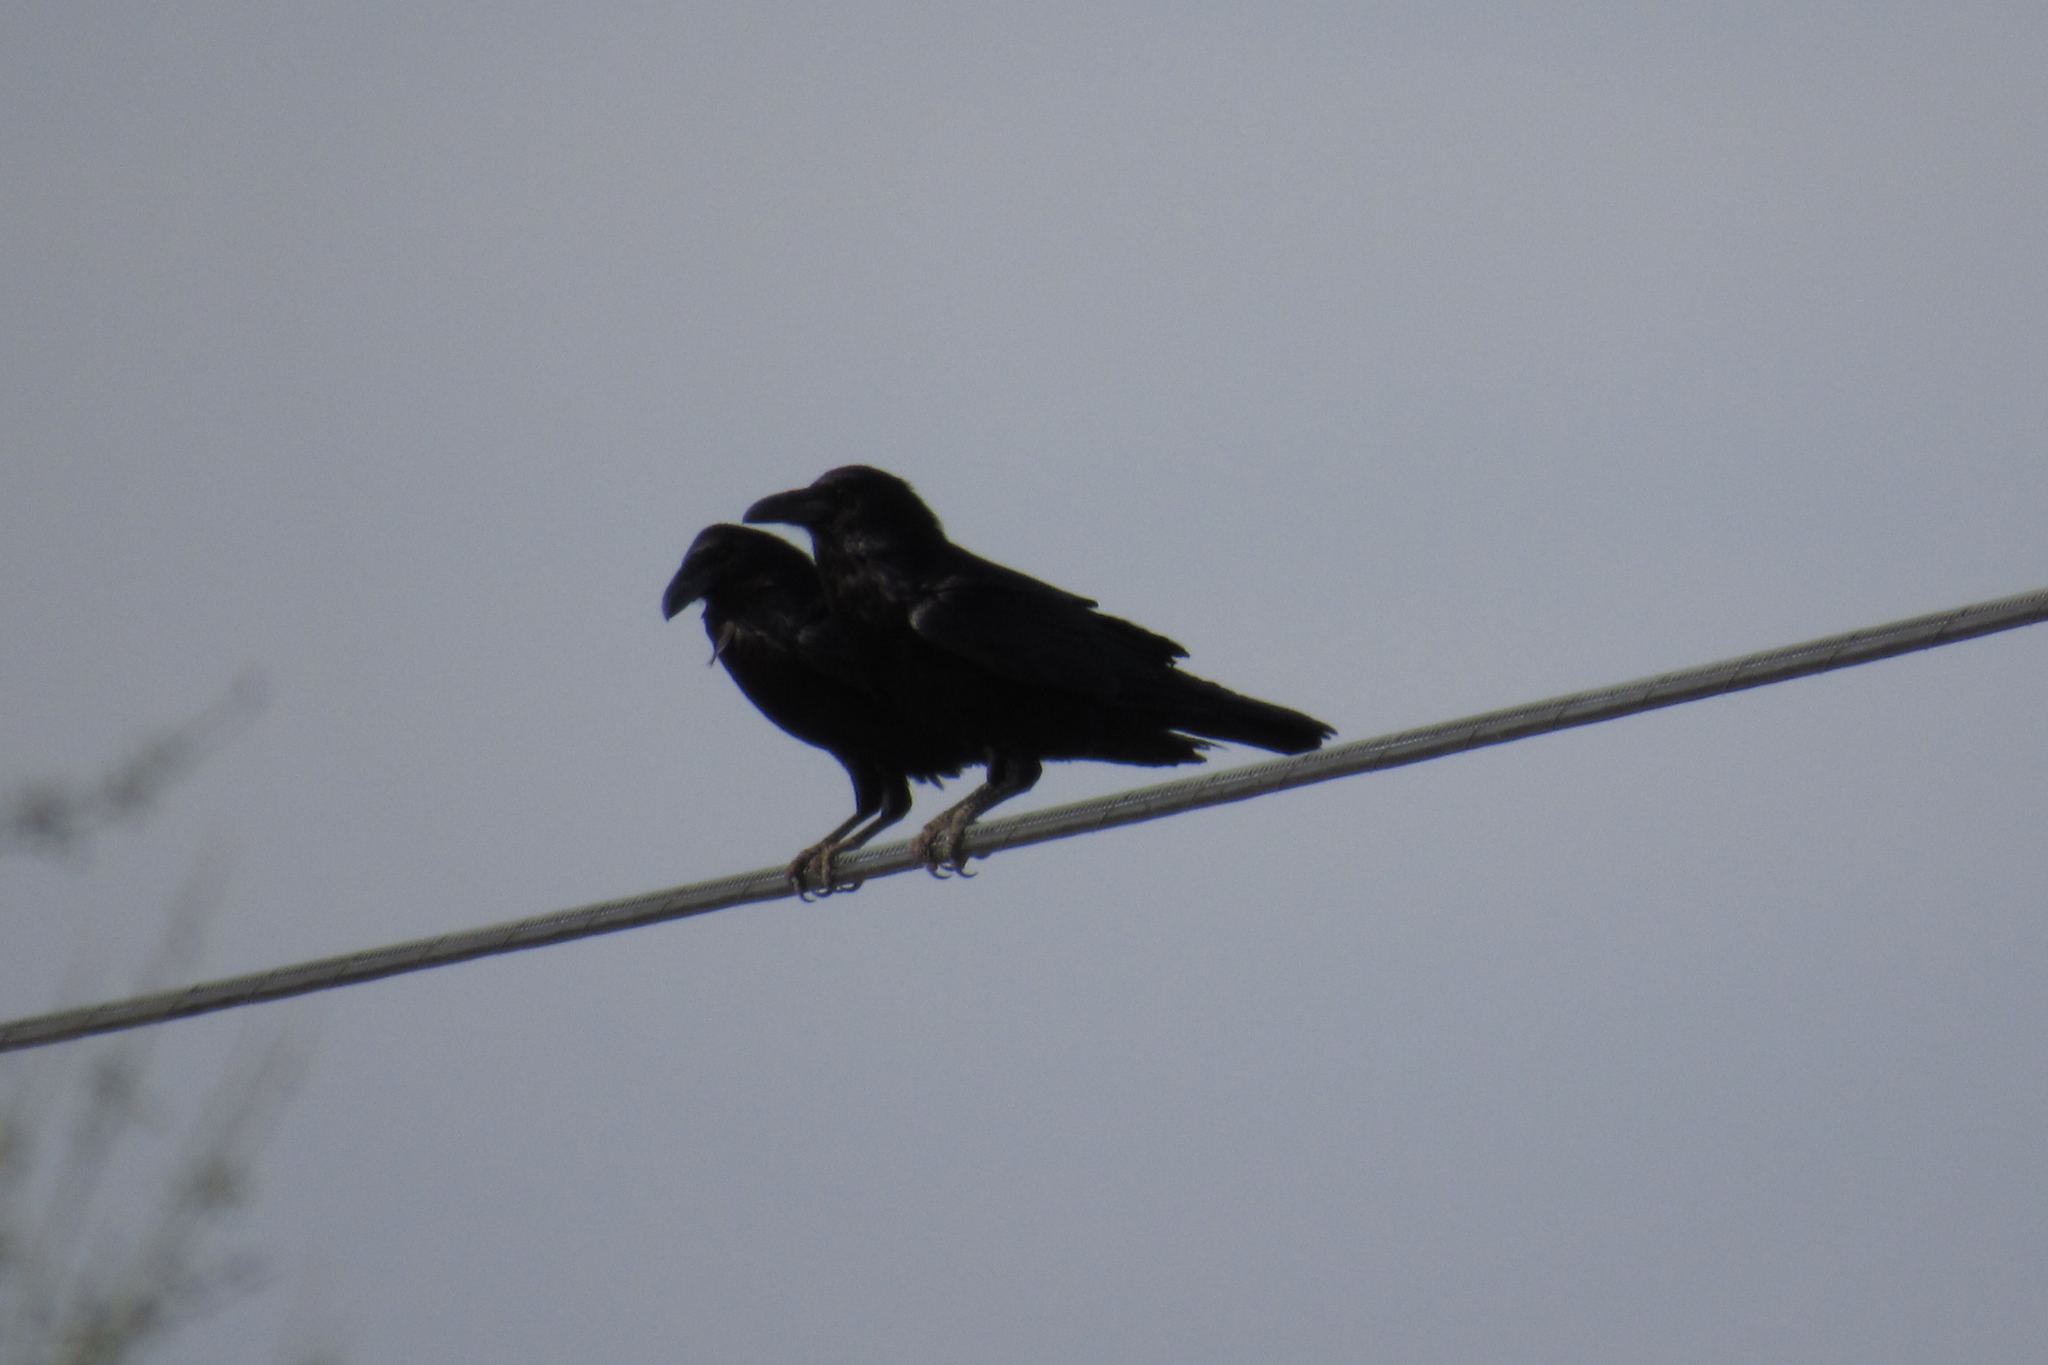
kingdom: Animalia
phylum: Chordata
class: Aves
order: Passeriformes
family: Corvidae
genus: Corvus
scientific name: Corvus corax
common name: Common raven
